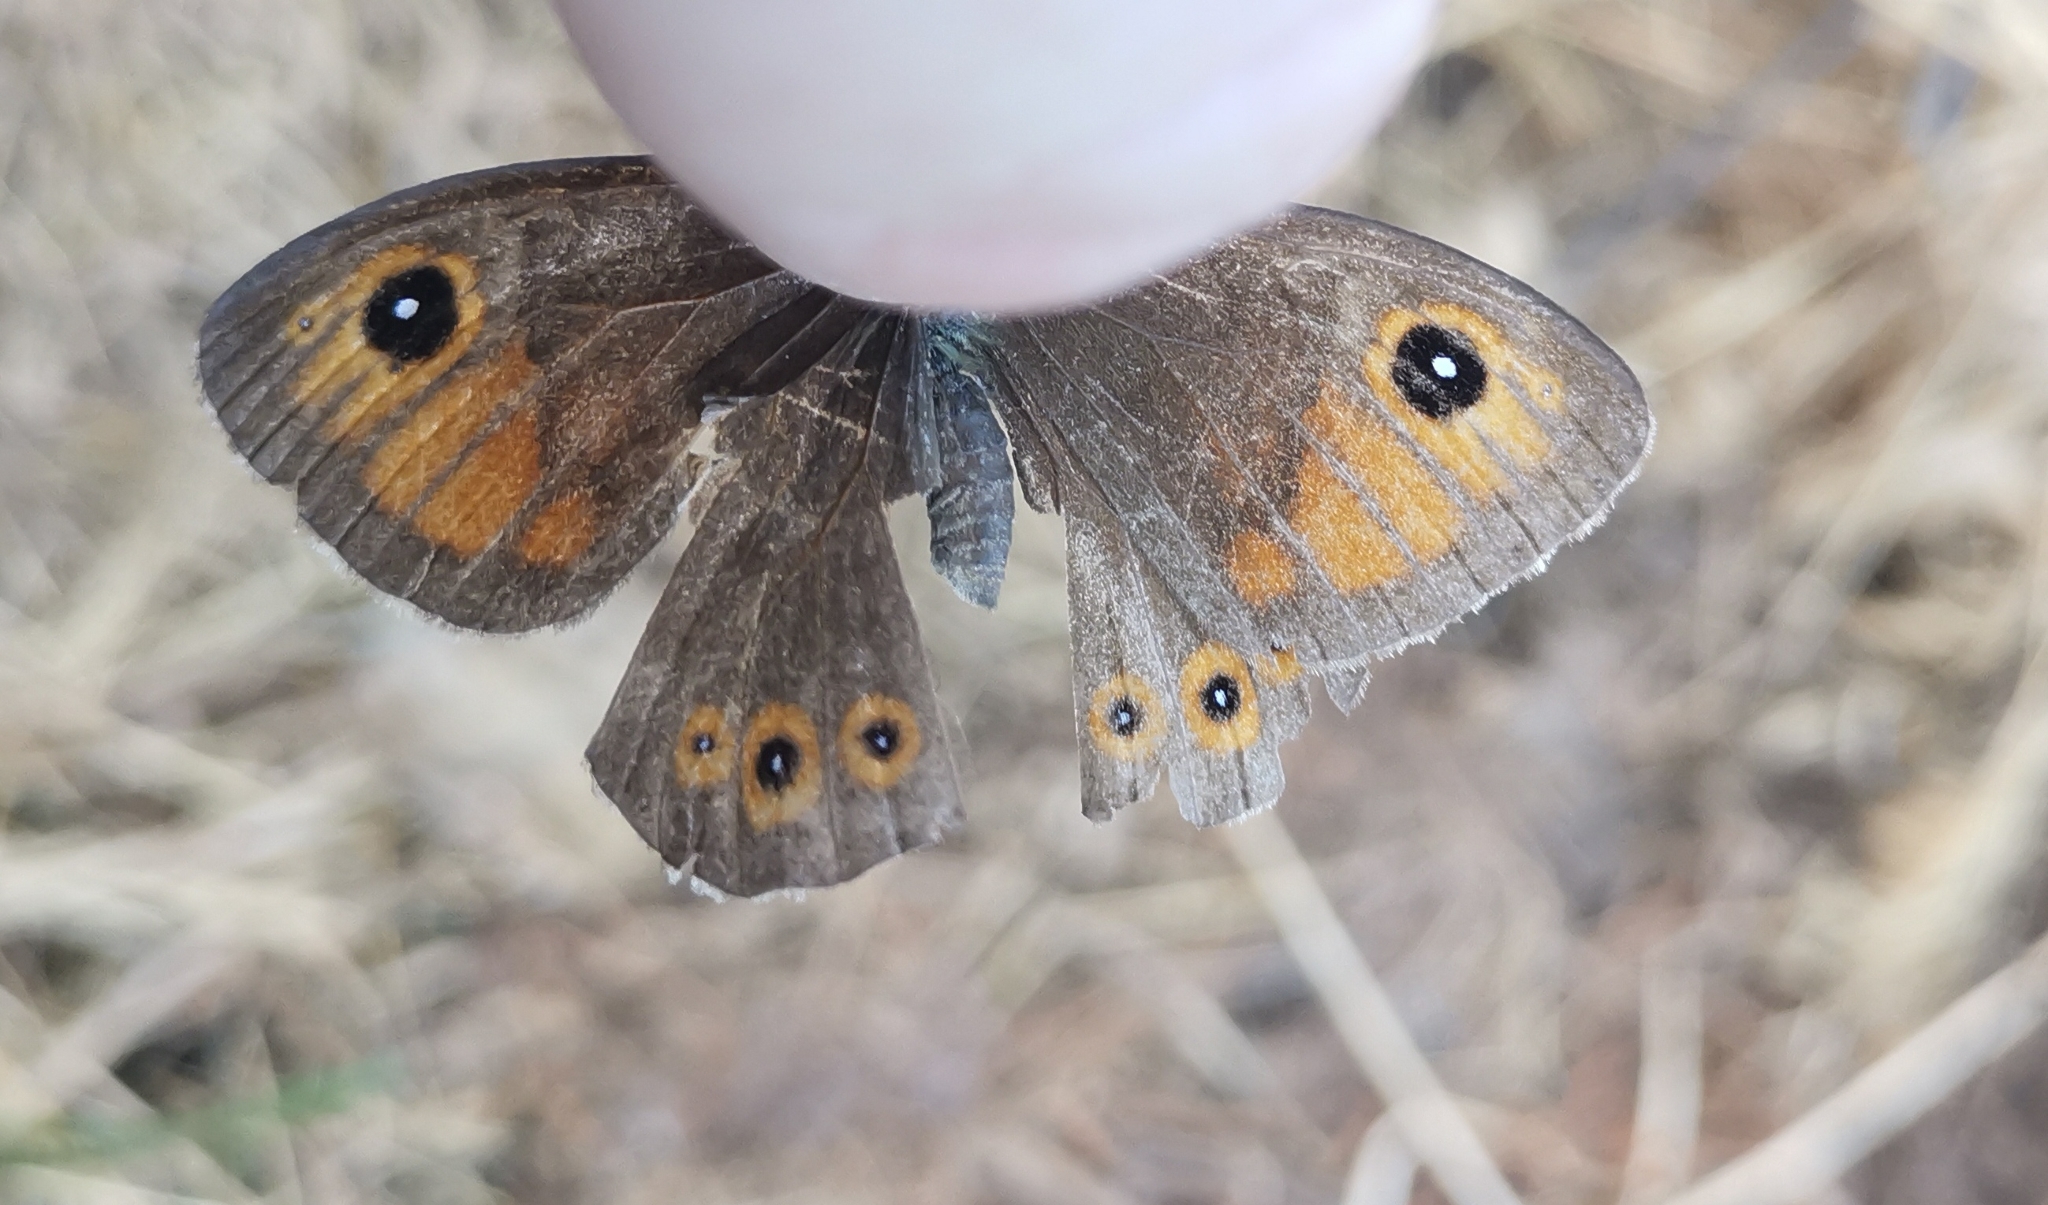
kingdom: Animalia
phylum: Arthropoda
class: Insecta
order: Lepidoptera
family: Nymphalidae
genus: Pararge
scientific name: Pararge Lasiommata maera
